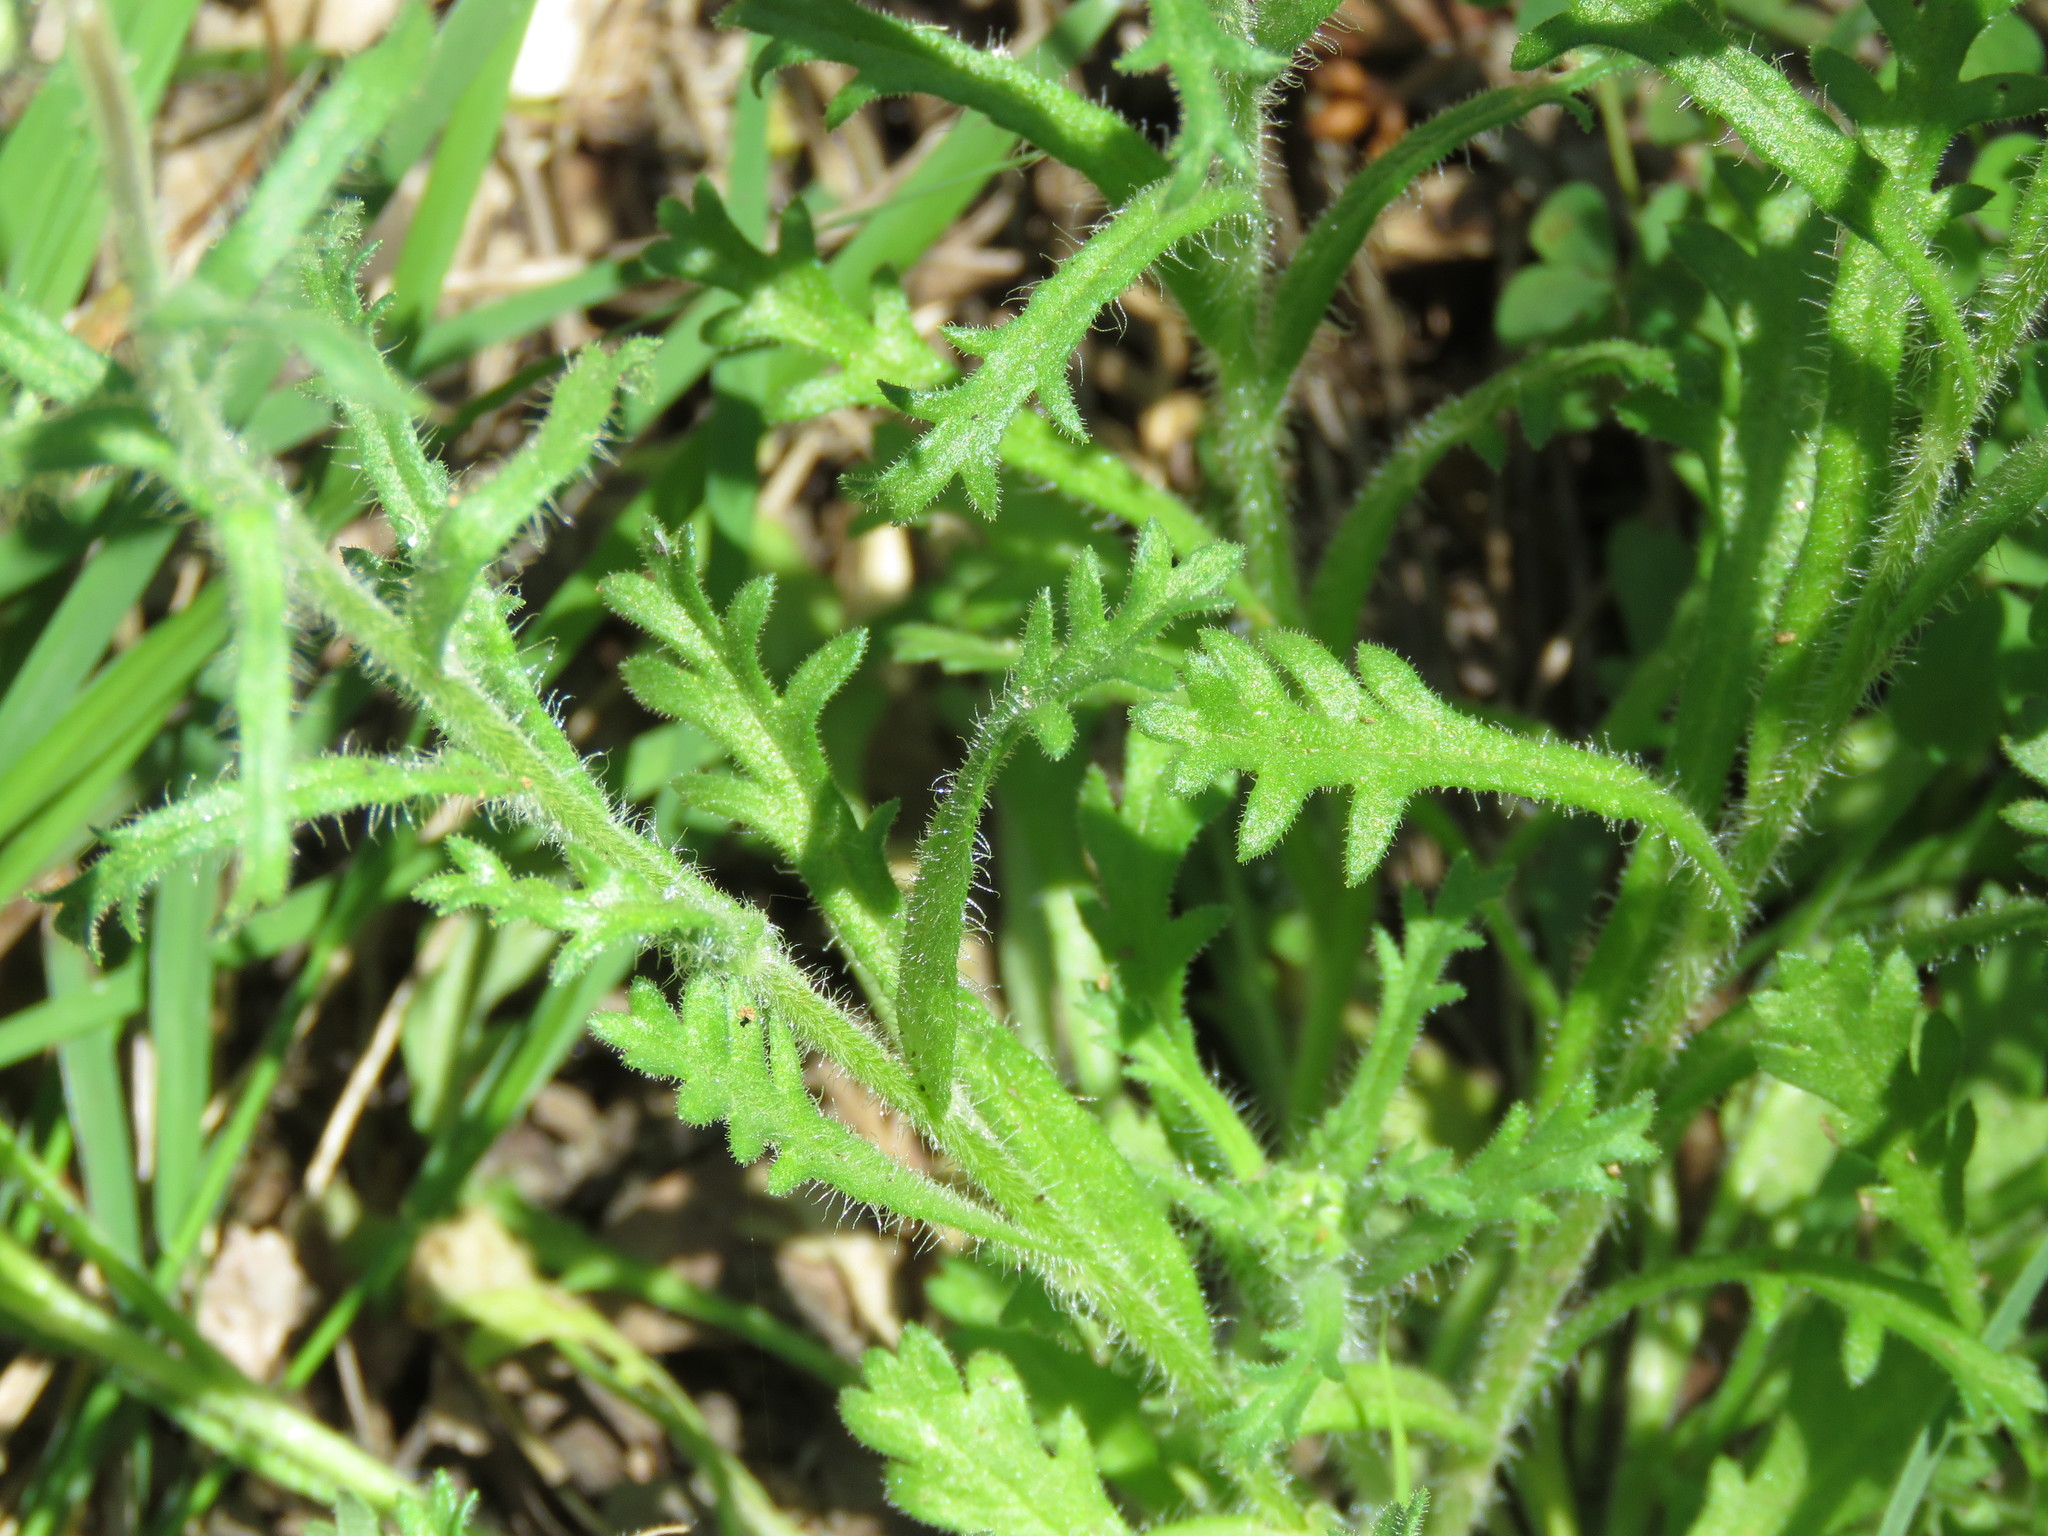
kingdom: Plantae
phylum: Tracheophyta
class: Magnoliopsida
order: Asterales
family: Asteraceae
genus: Brachyscome
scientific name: Brachyscome diversifolia
